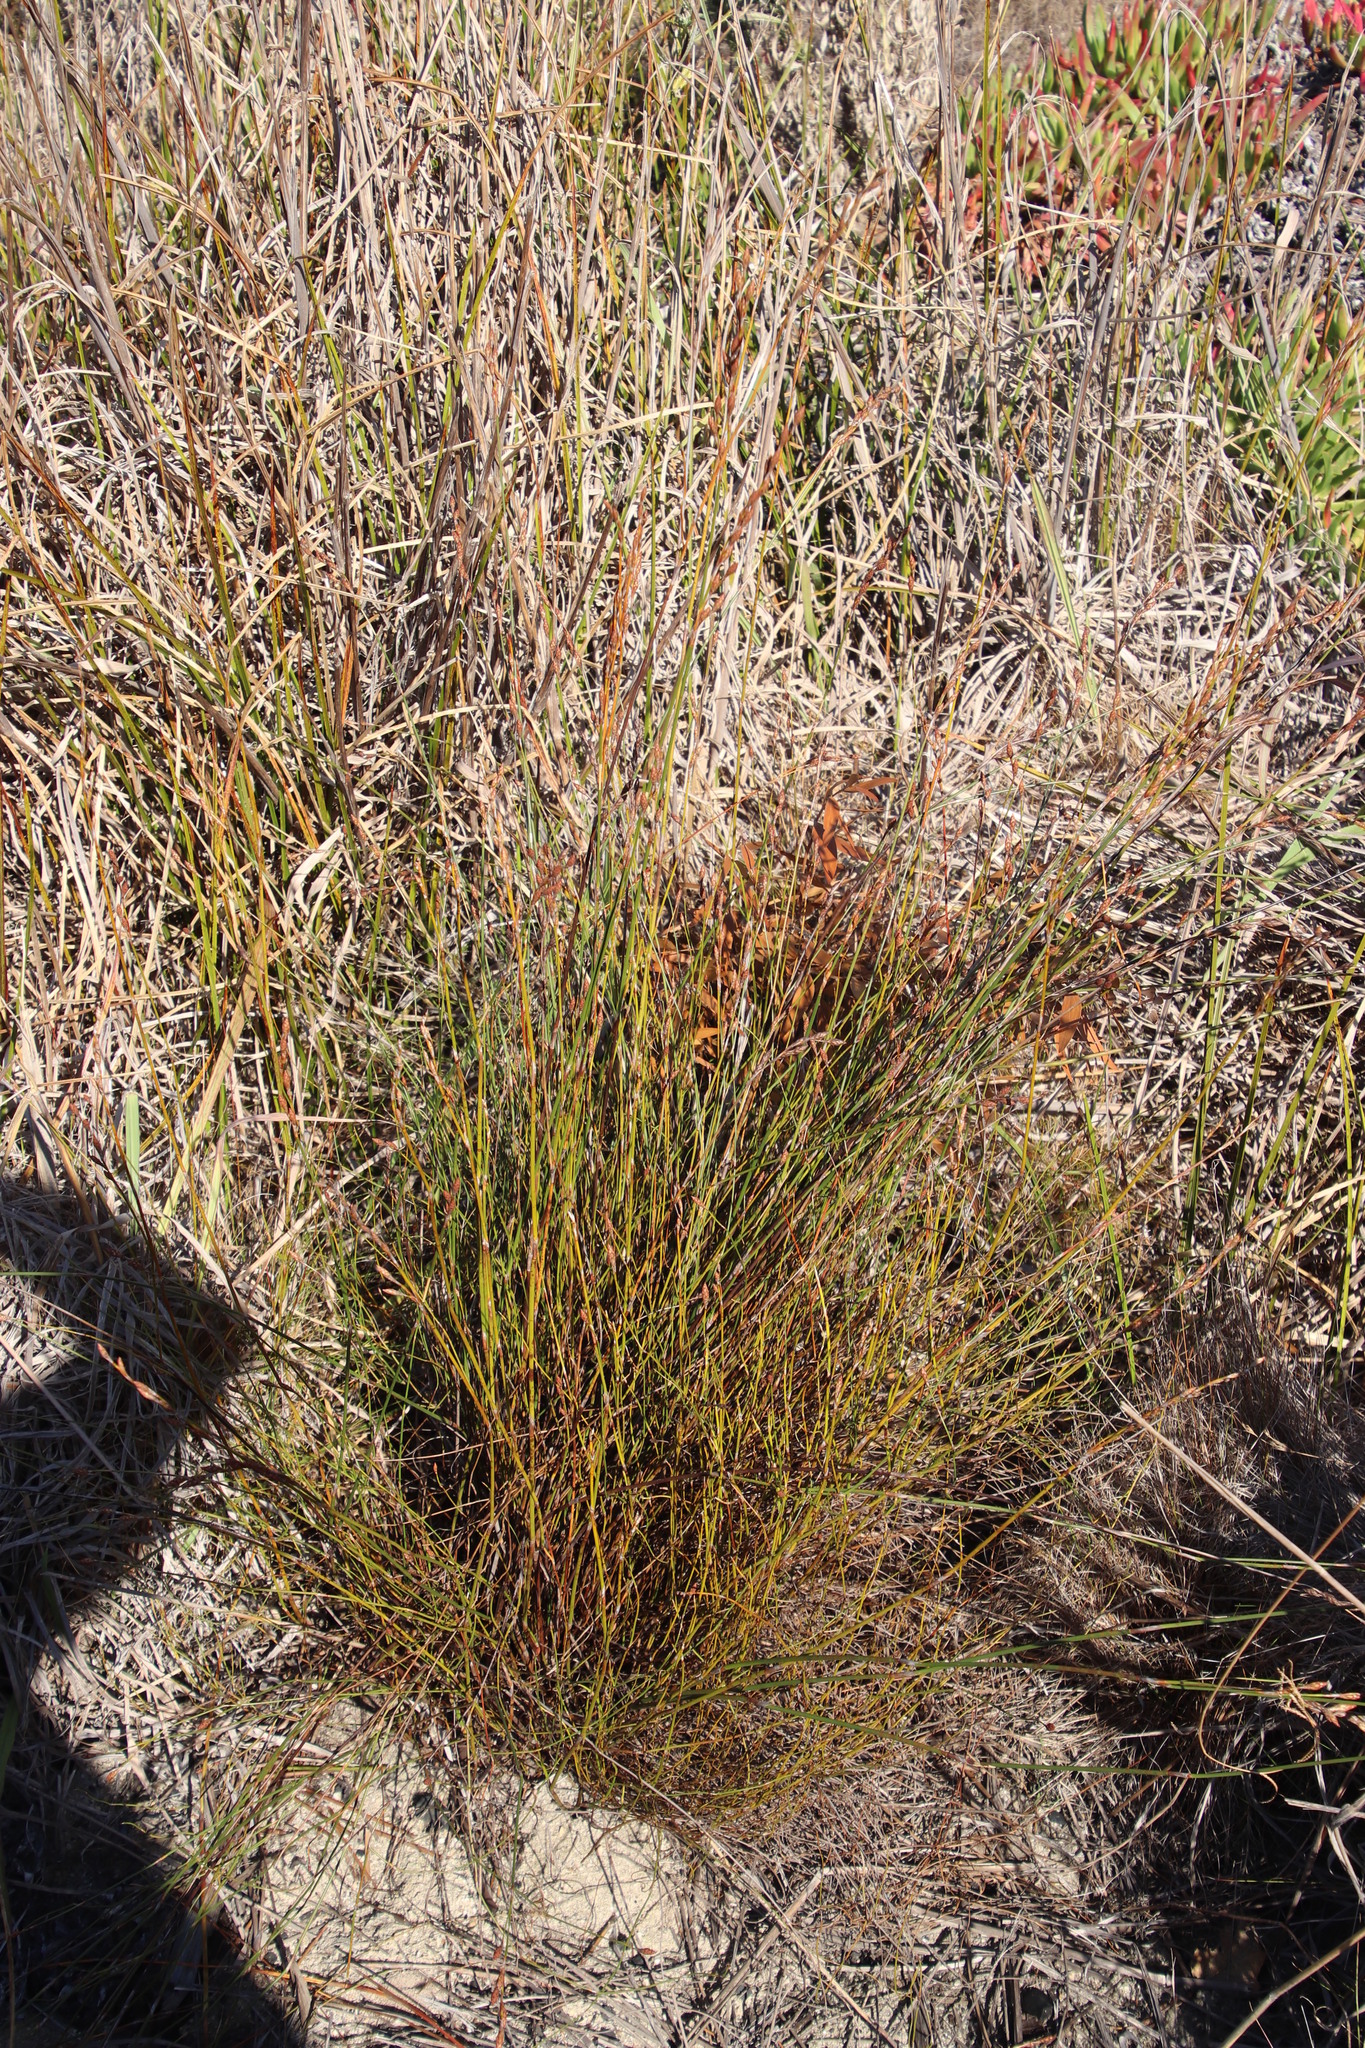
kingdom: Plantae
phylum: Tracheophyta
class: Liliopsida
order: Poales
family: Restionaceae
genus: Restio
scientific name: Restio bifurcus
